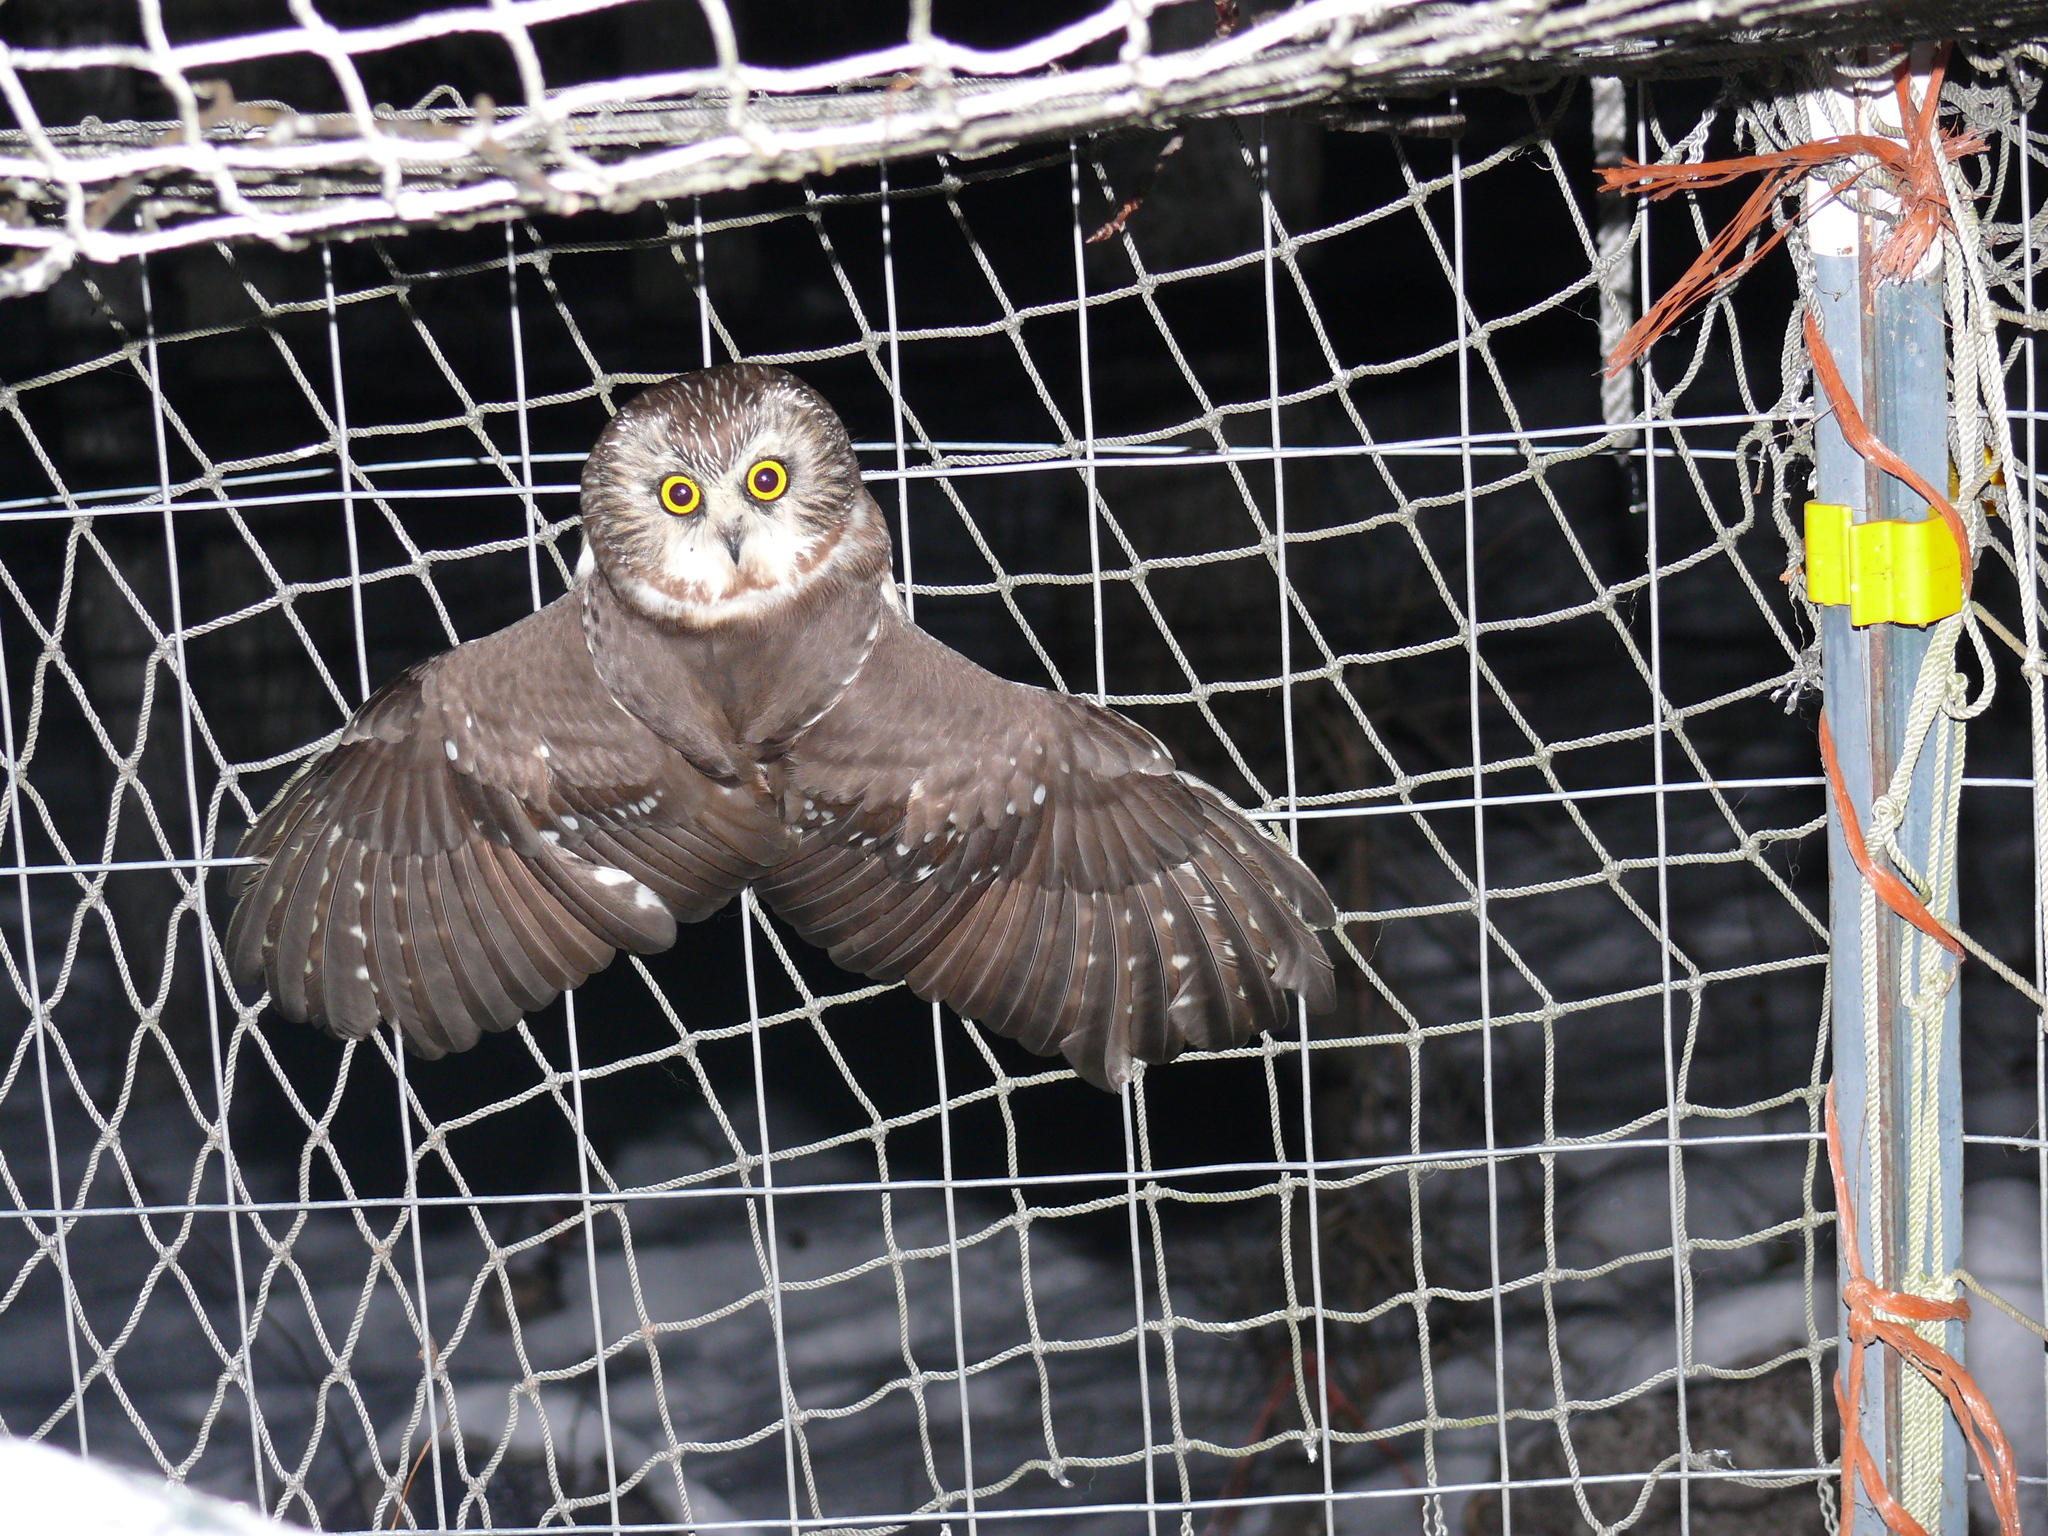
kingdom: Animalia
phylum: Chordata
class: Aves
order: Strigiformes
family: Strigidae
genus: Aegolius
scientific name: Aegolius acadicus
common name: Northern saw-whet owl
